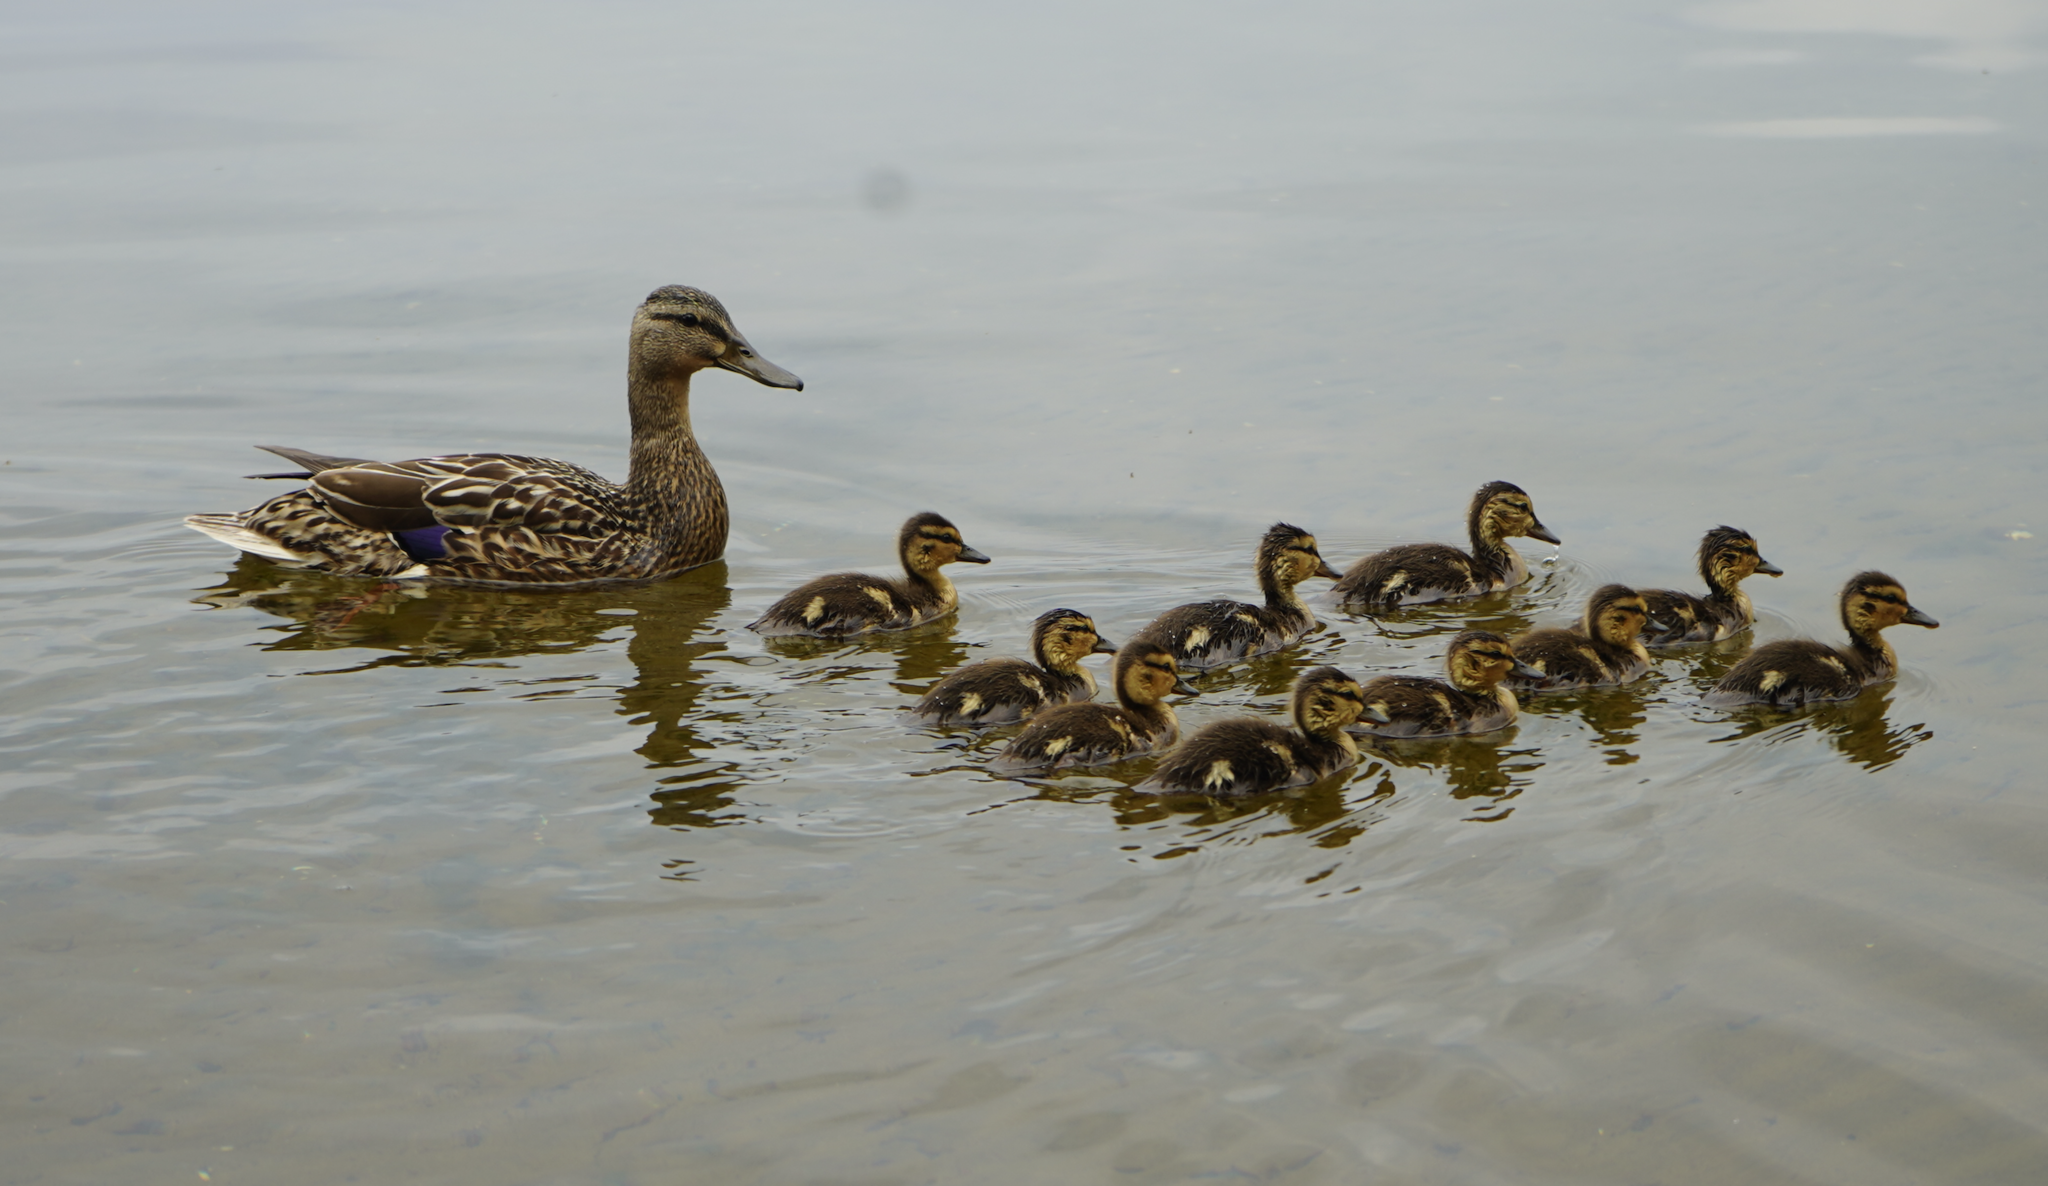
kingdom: Animalia
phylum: Chordata
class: Aves
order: Anseriformes
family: Anatidae
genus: Anas
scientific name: Anas platyrhynchos
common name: Mallard
